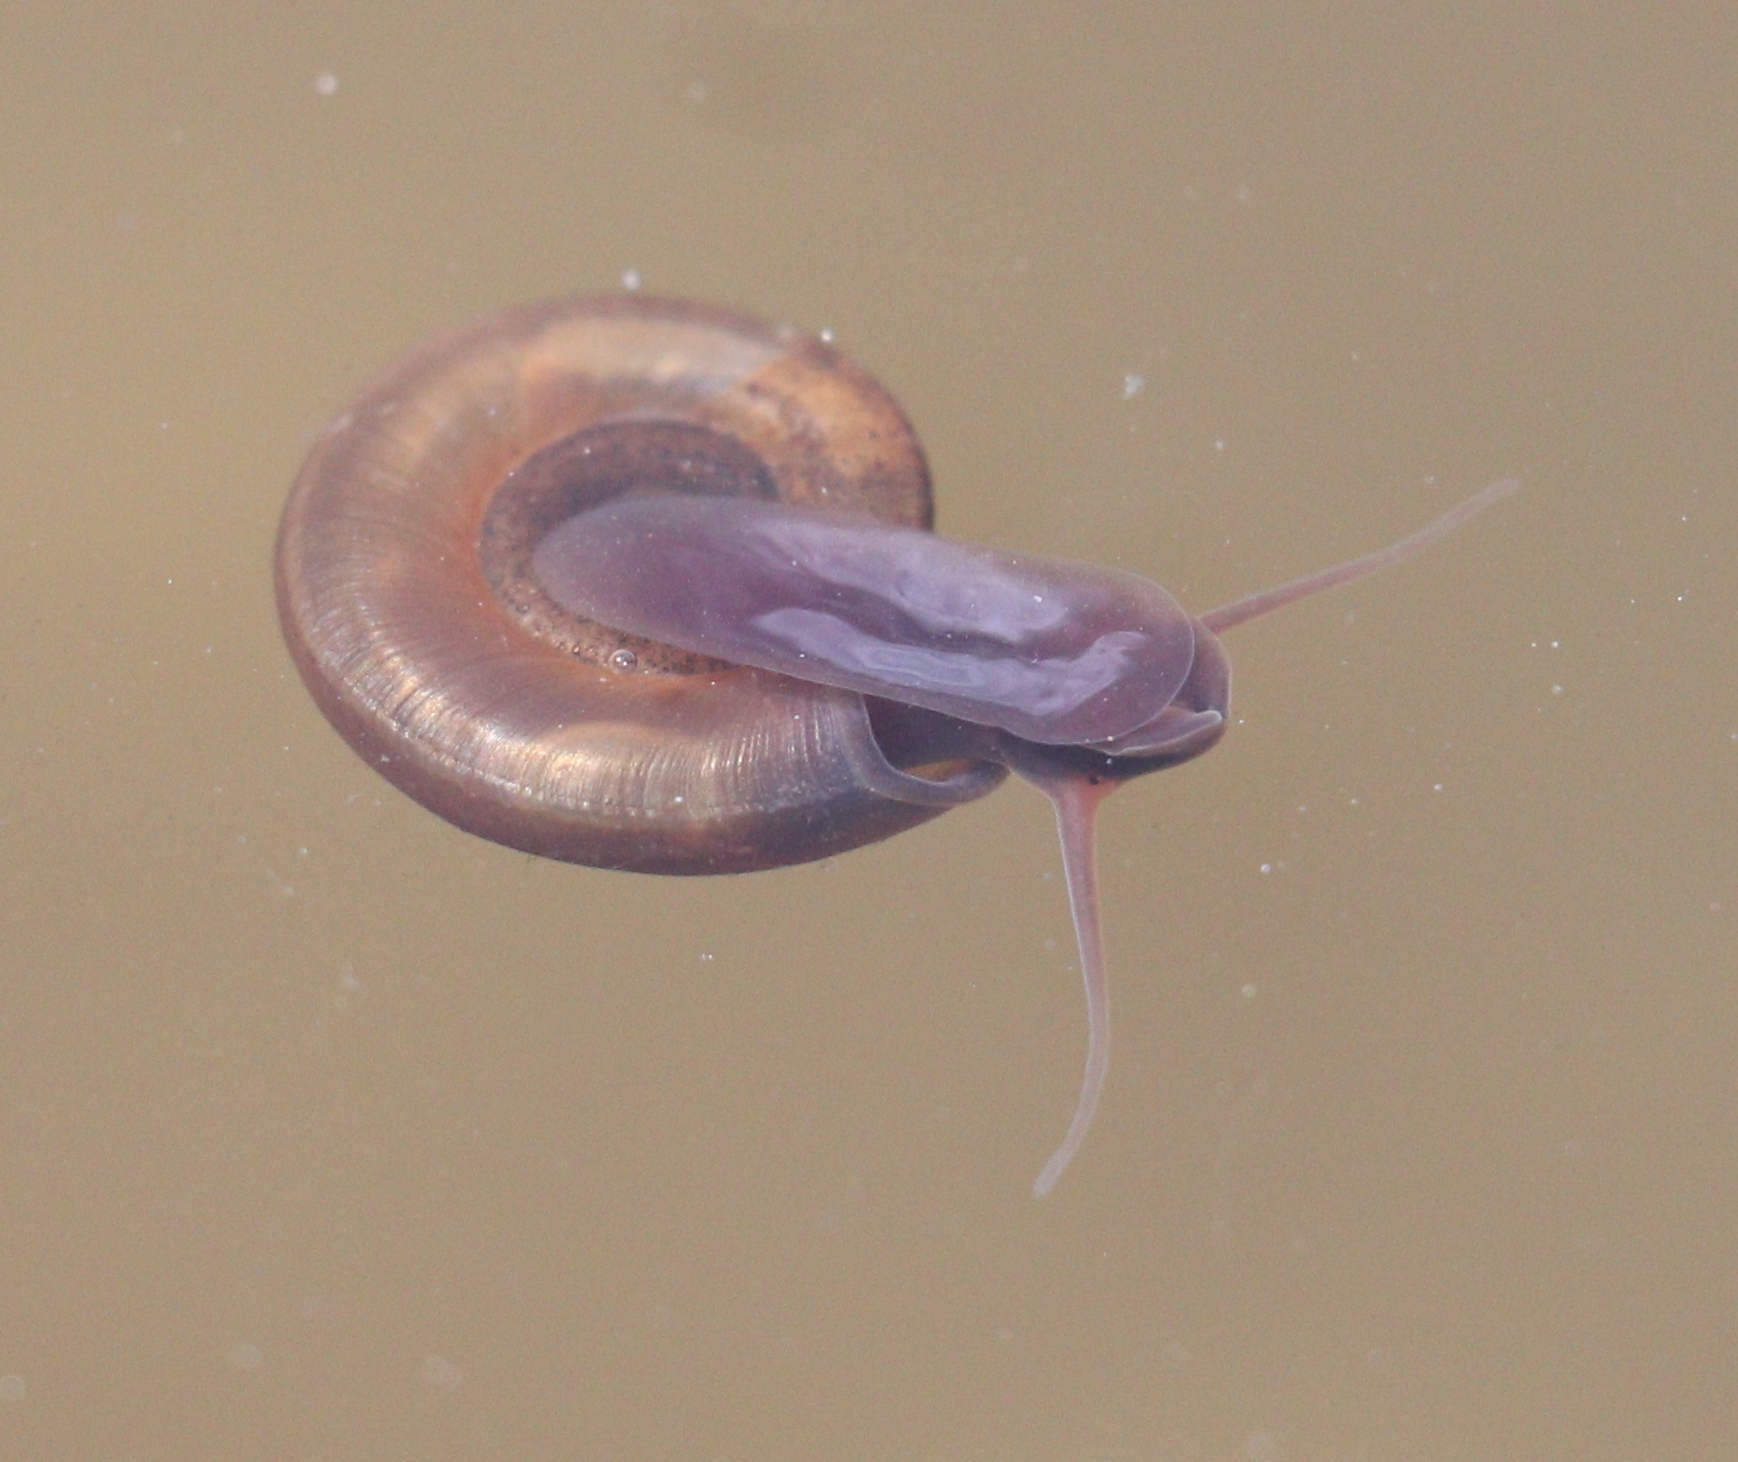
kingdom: Animalia
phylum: Mollusca
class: Gastropoda
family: Planorbidae
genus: Planorbis
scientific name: Planorbis planorbis
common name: Margined ramshorn
